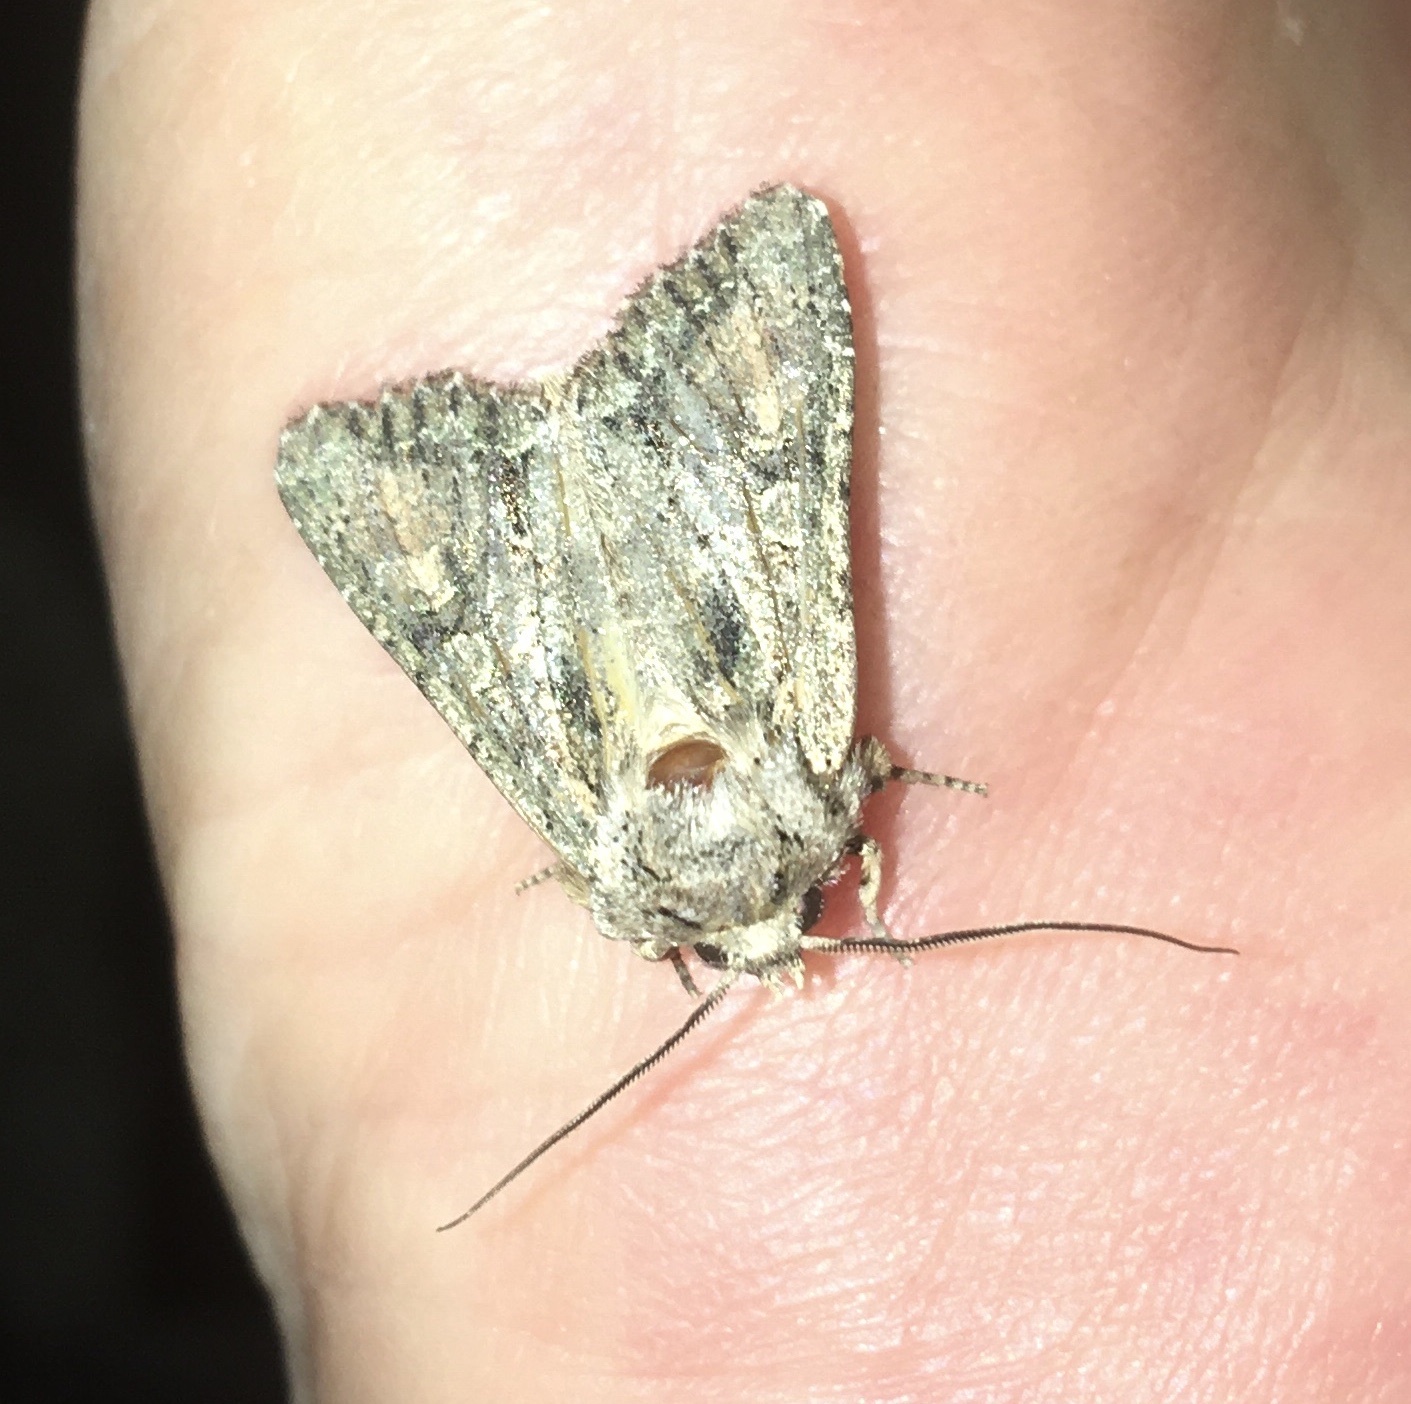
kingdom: Animalia
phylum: Arthropoda
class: Insecta
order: Lepidoptera
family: Noctuidae
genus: Ichneutica
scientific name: Ichneutica mutans
